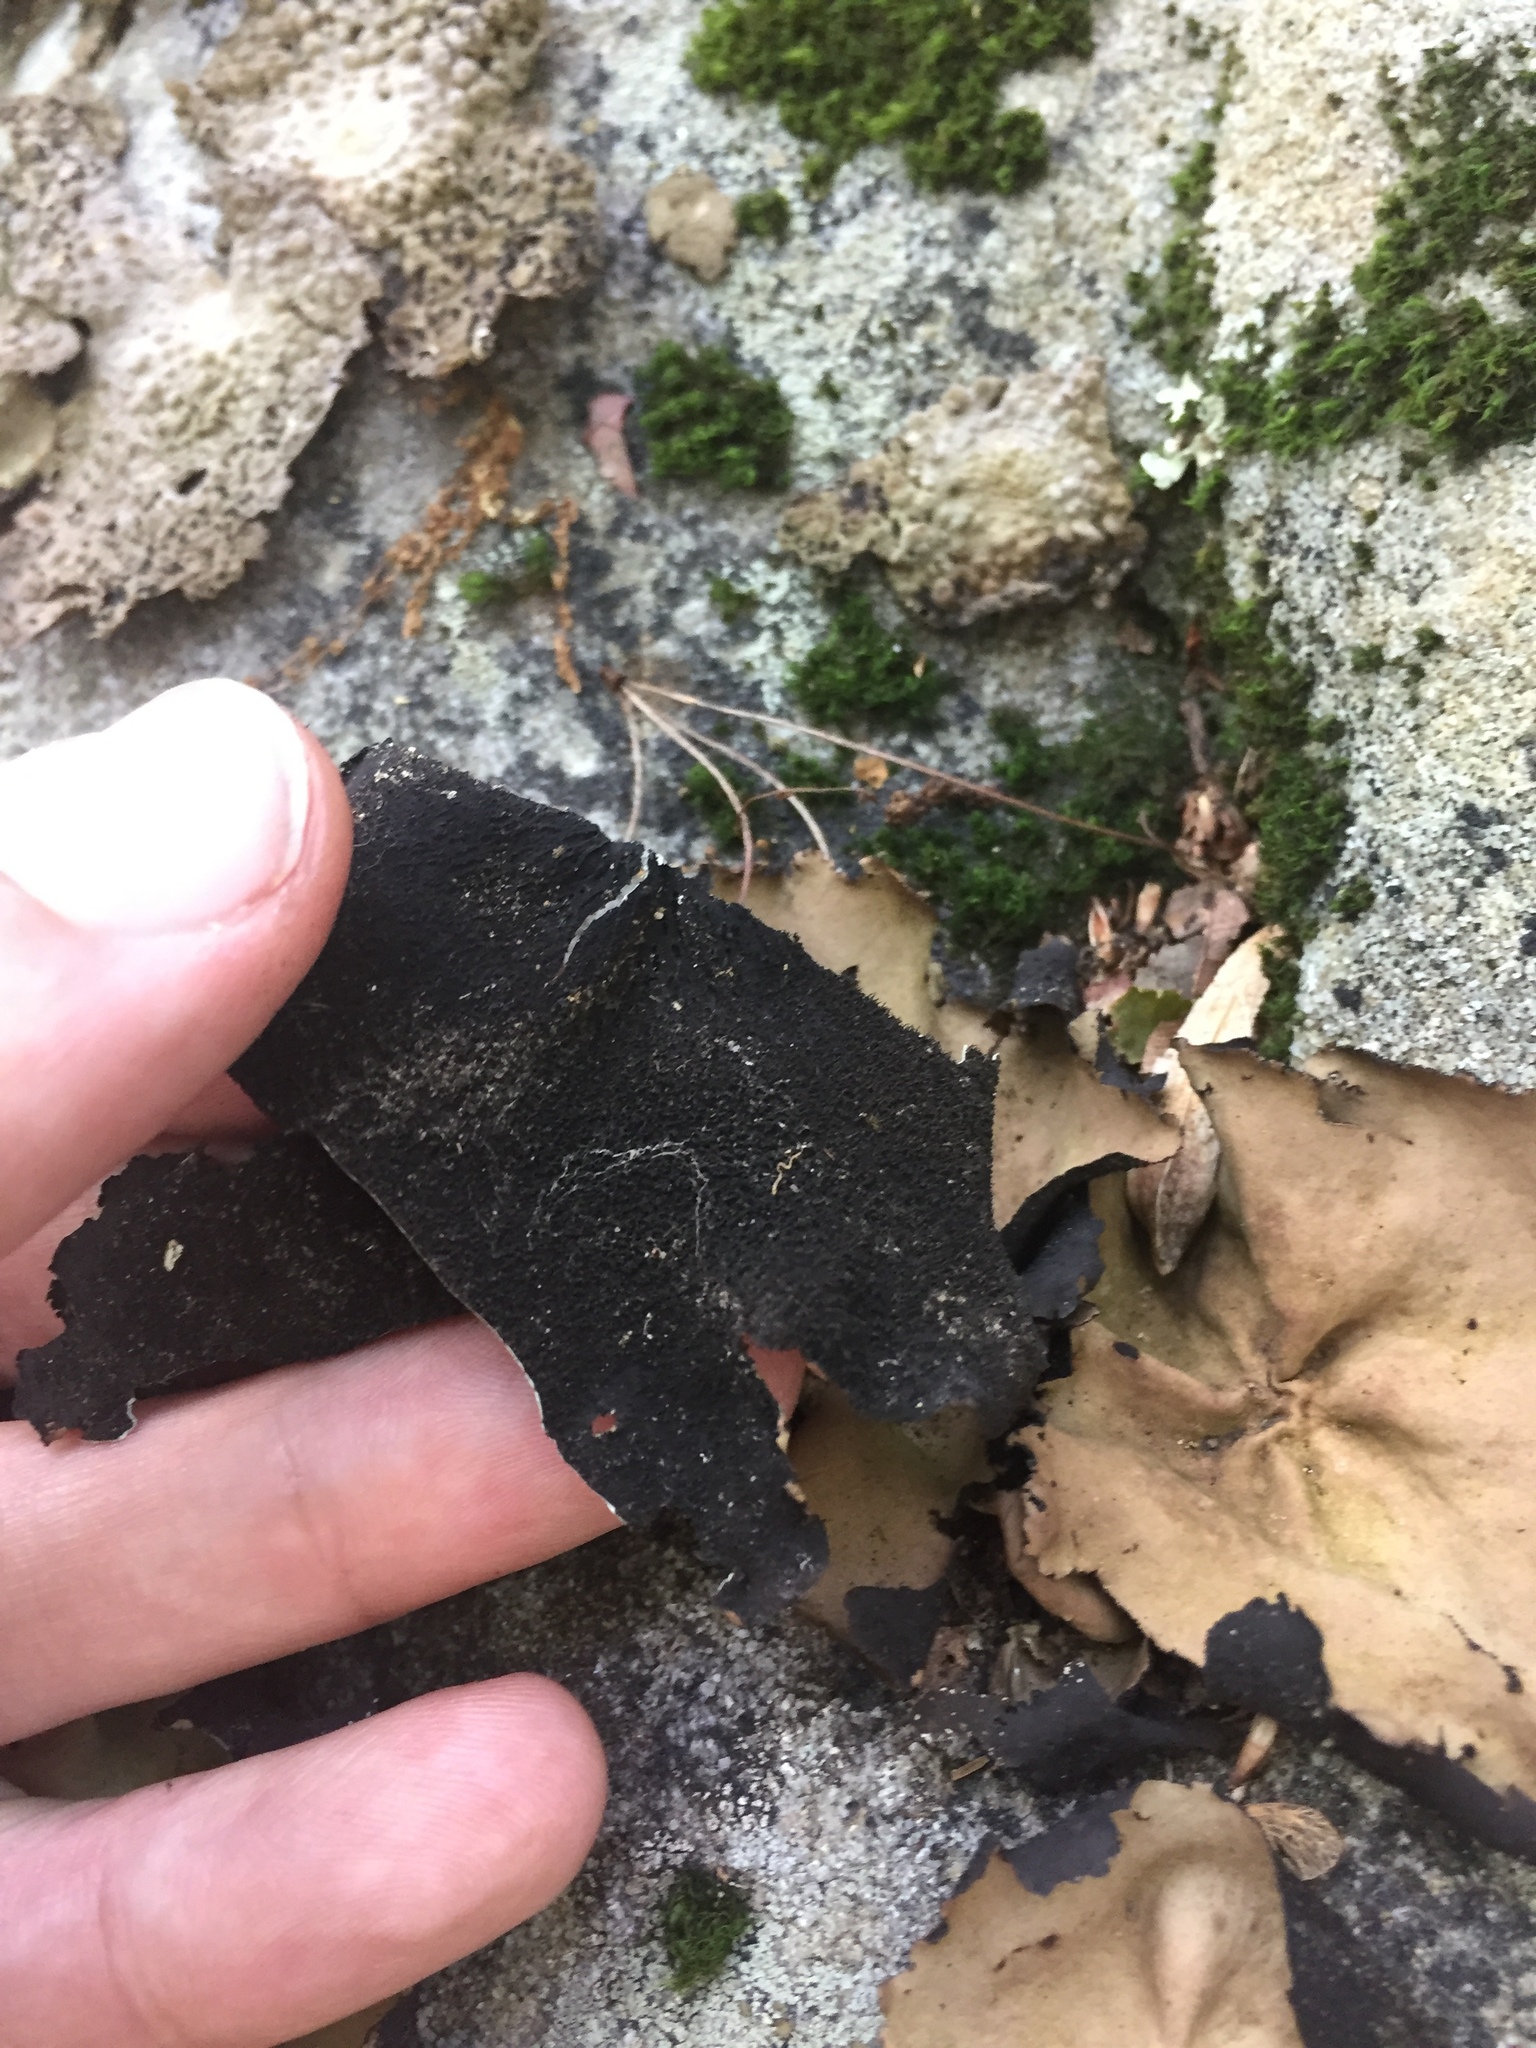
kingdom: Fungi
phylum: Ascomycota
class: Lecanoromycetes
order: Umbilicariales
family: Umbilicariaceae
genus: Umbilicaria
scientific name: Umbilicaria mammulata
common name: Smooth rock tripe
